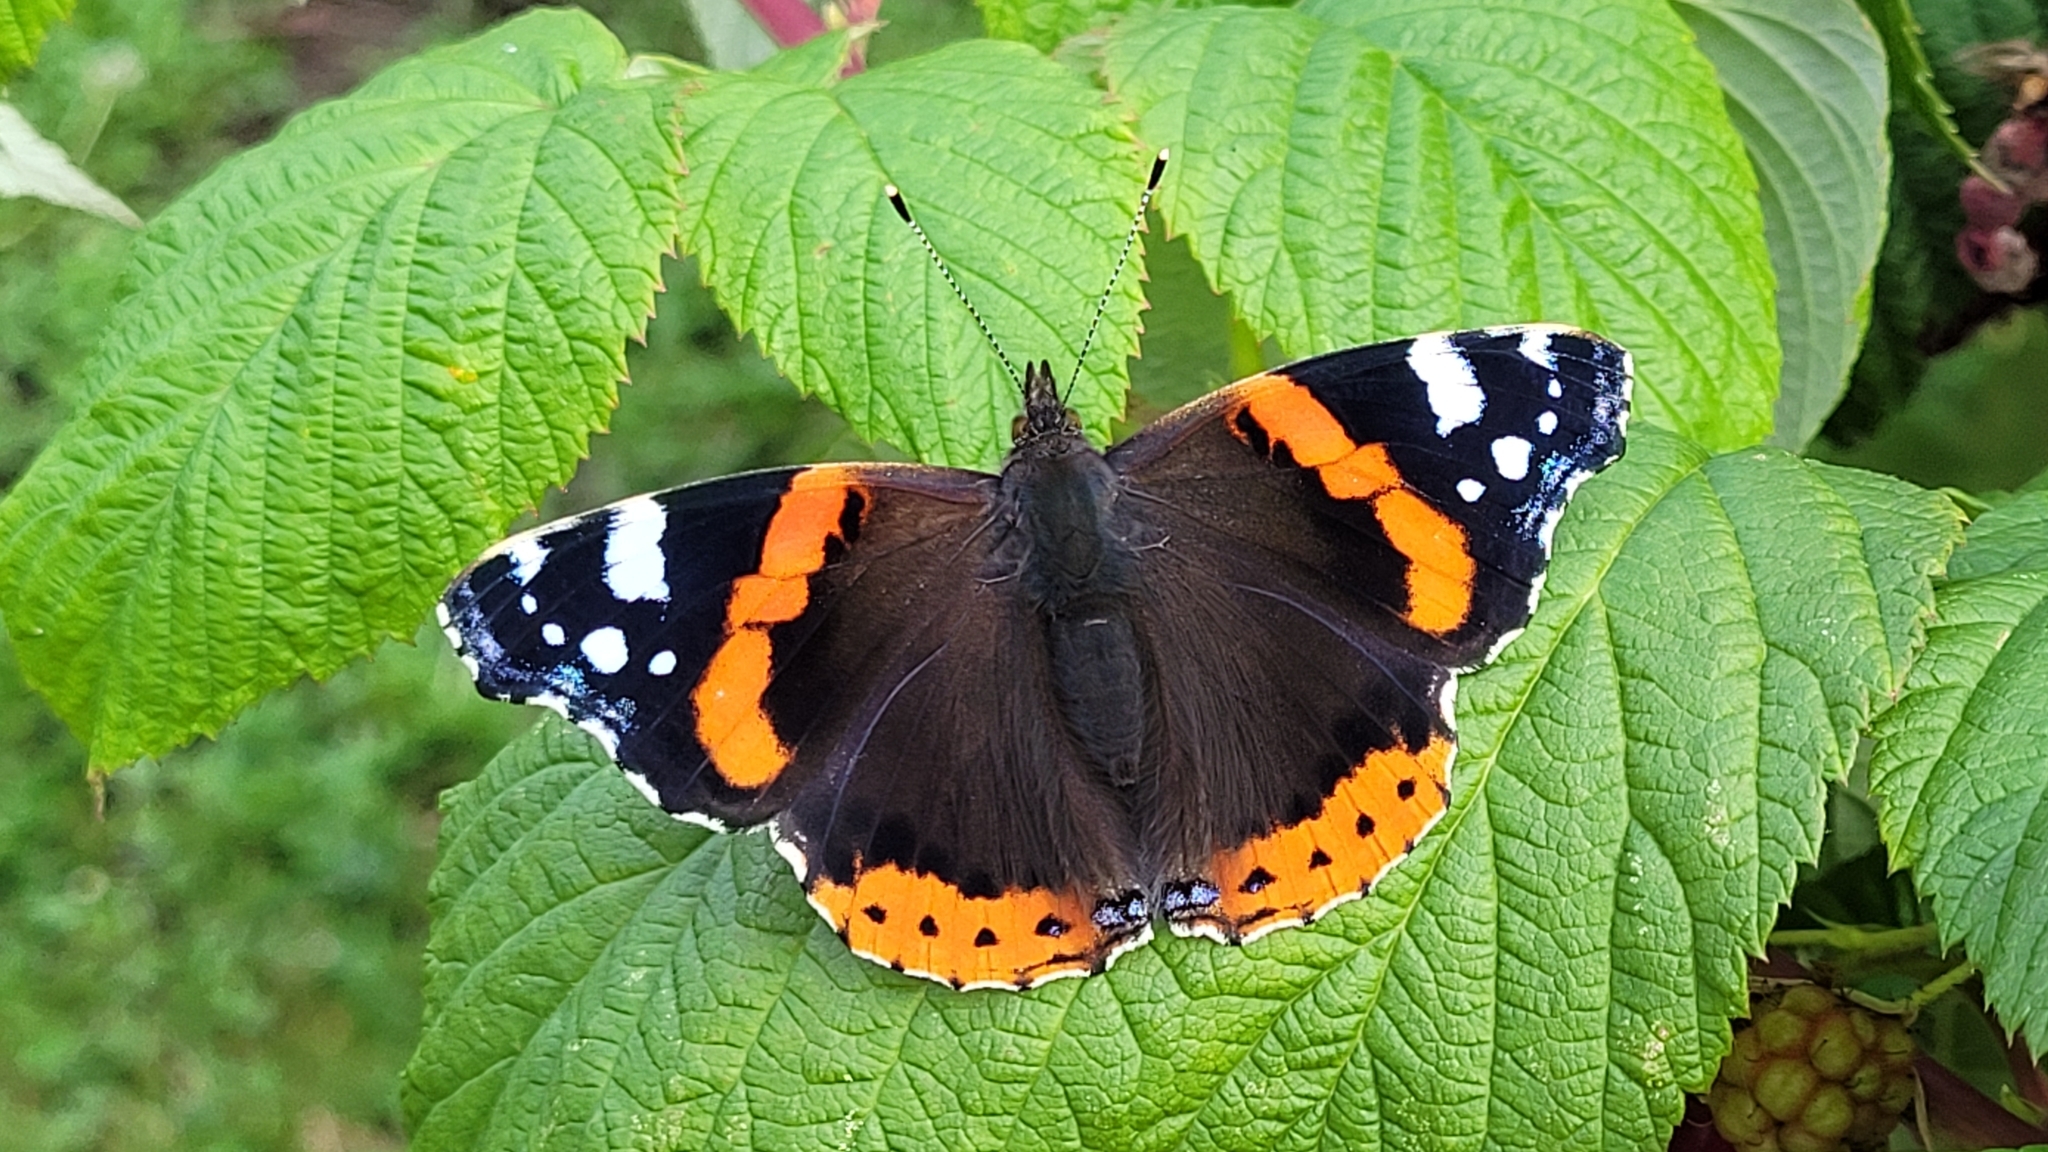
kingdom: Animalia
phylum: Arthropoda
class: Insecta
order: Lepidoptera
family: Nymphalidae
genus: Vanessa
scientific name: Vanessa atalanta
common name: Red admiral
